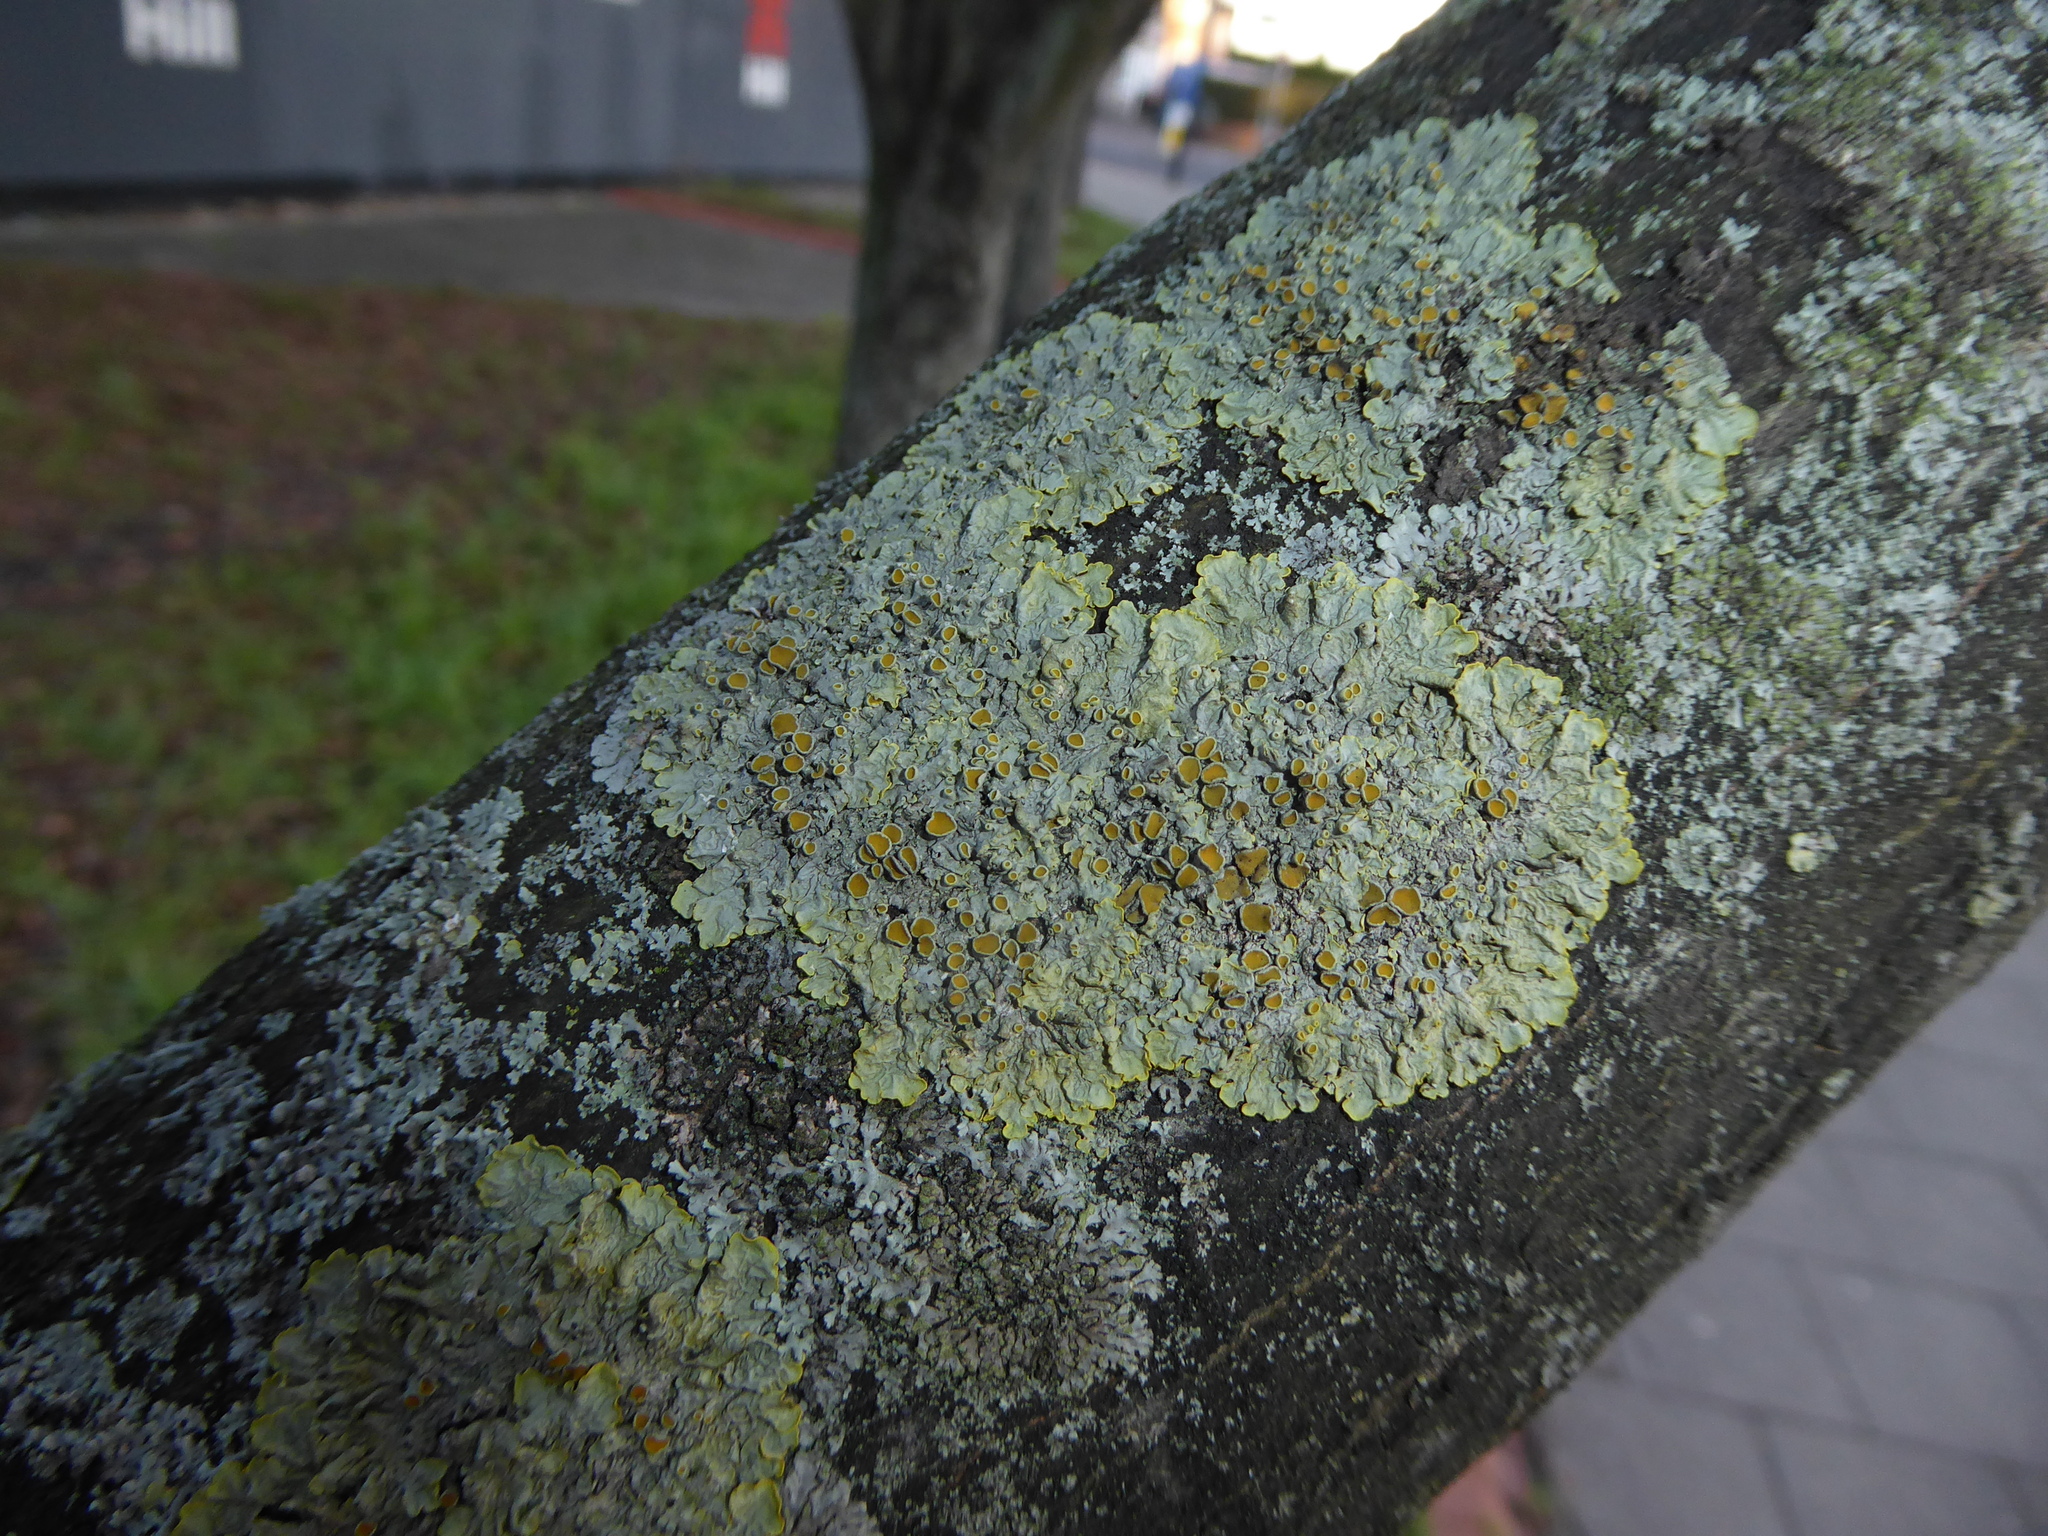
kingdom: Fungi
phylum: Ascomycota
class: Lecanoromycetes
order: Teloschistales
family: Teloschistaceae
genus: Xanthoria
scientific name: Xanthoria parietina
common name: Common orange lichen
